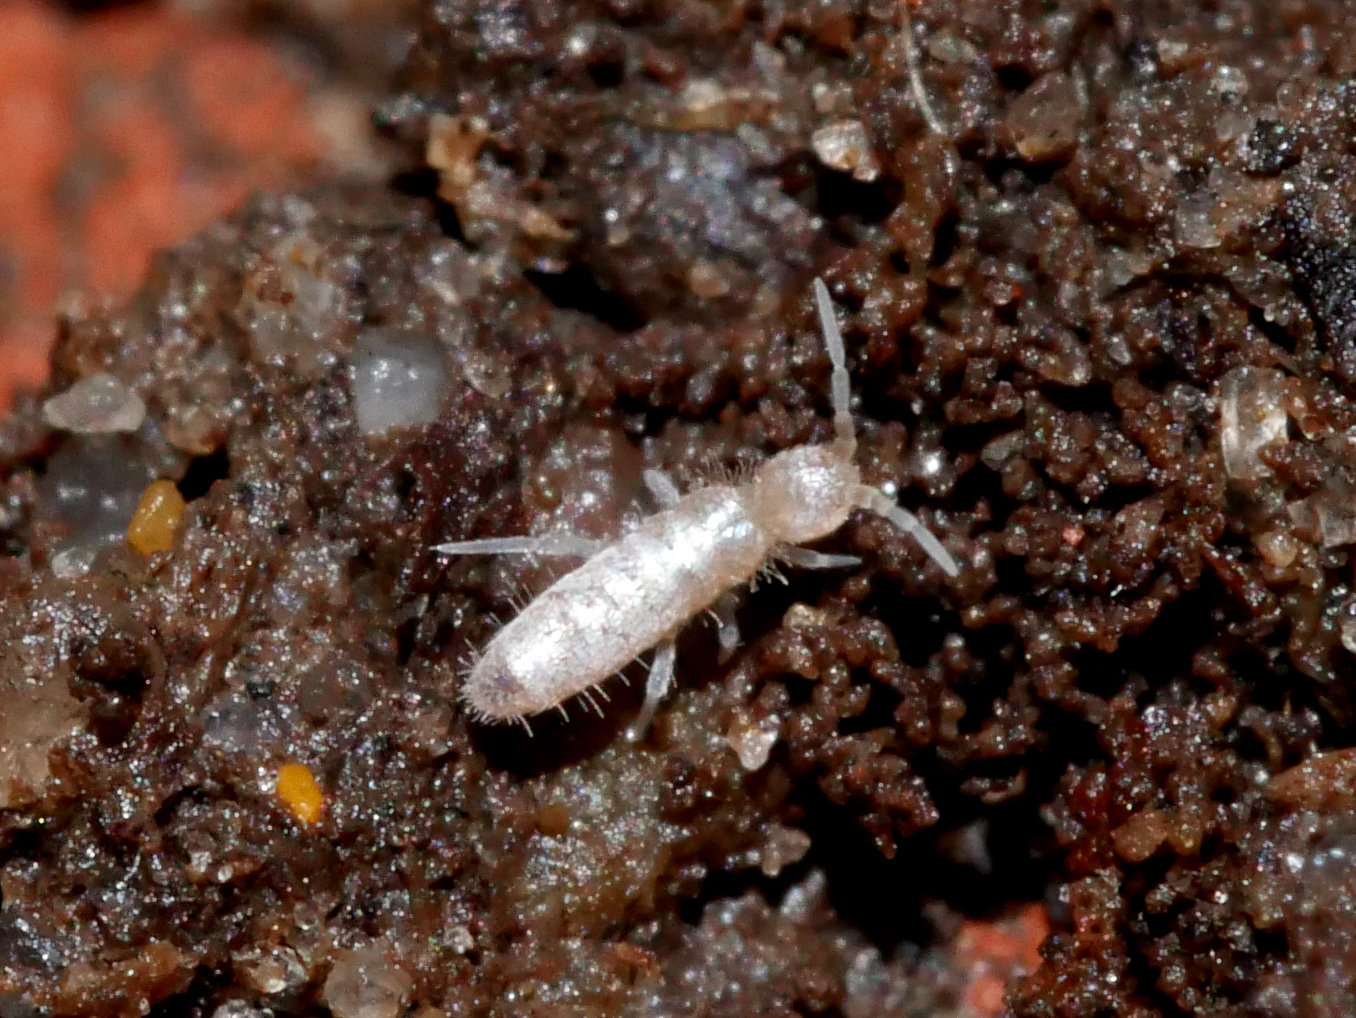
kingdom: Animalia
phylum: Arthropoda
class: Collembola
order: Entomobryomorpha
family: Orchesellidae
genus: Heteromurus
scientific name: Heteromurus nitidus
